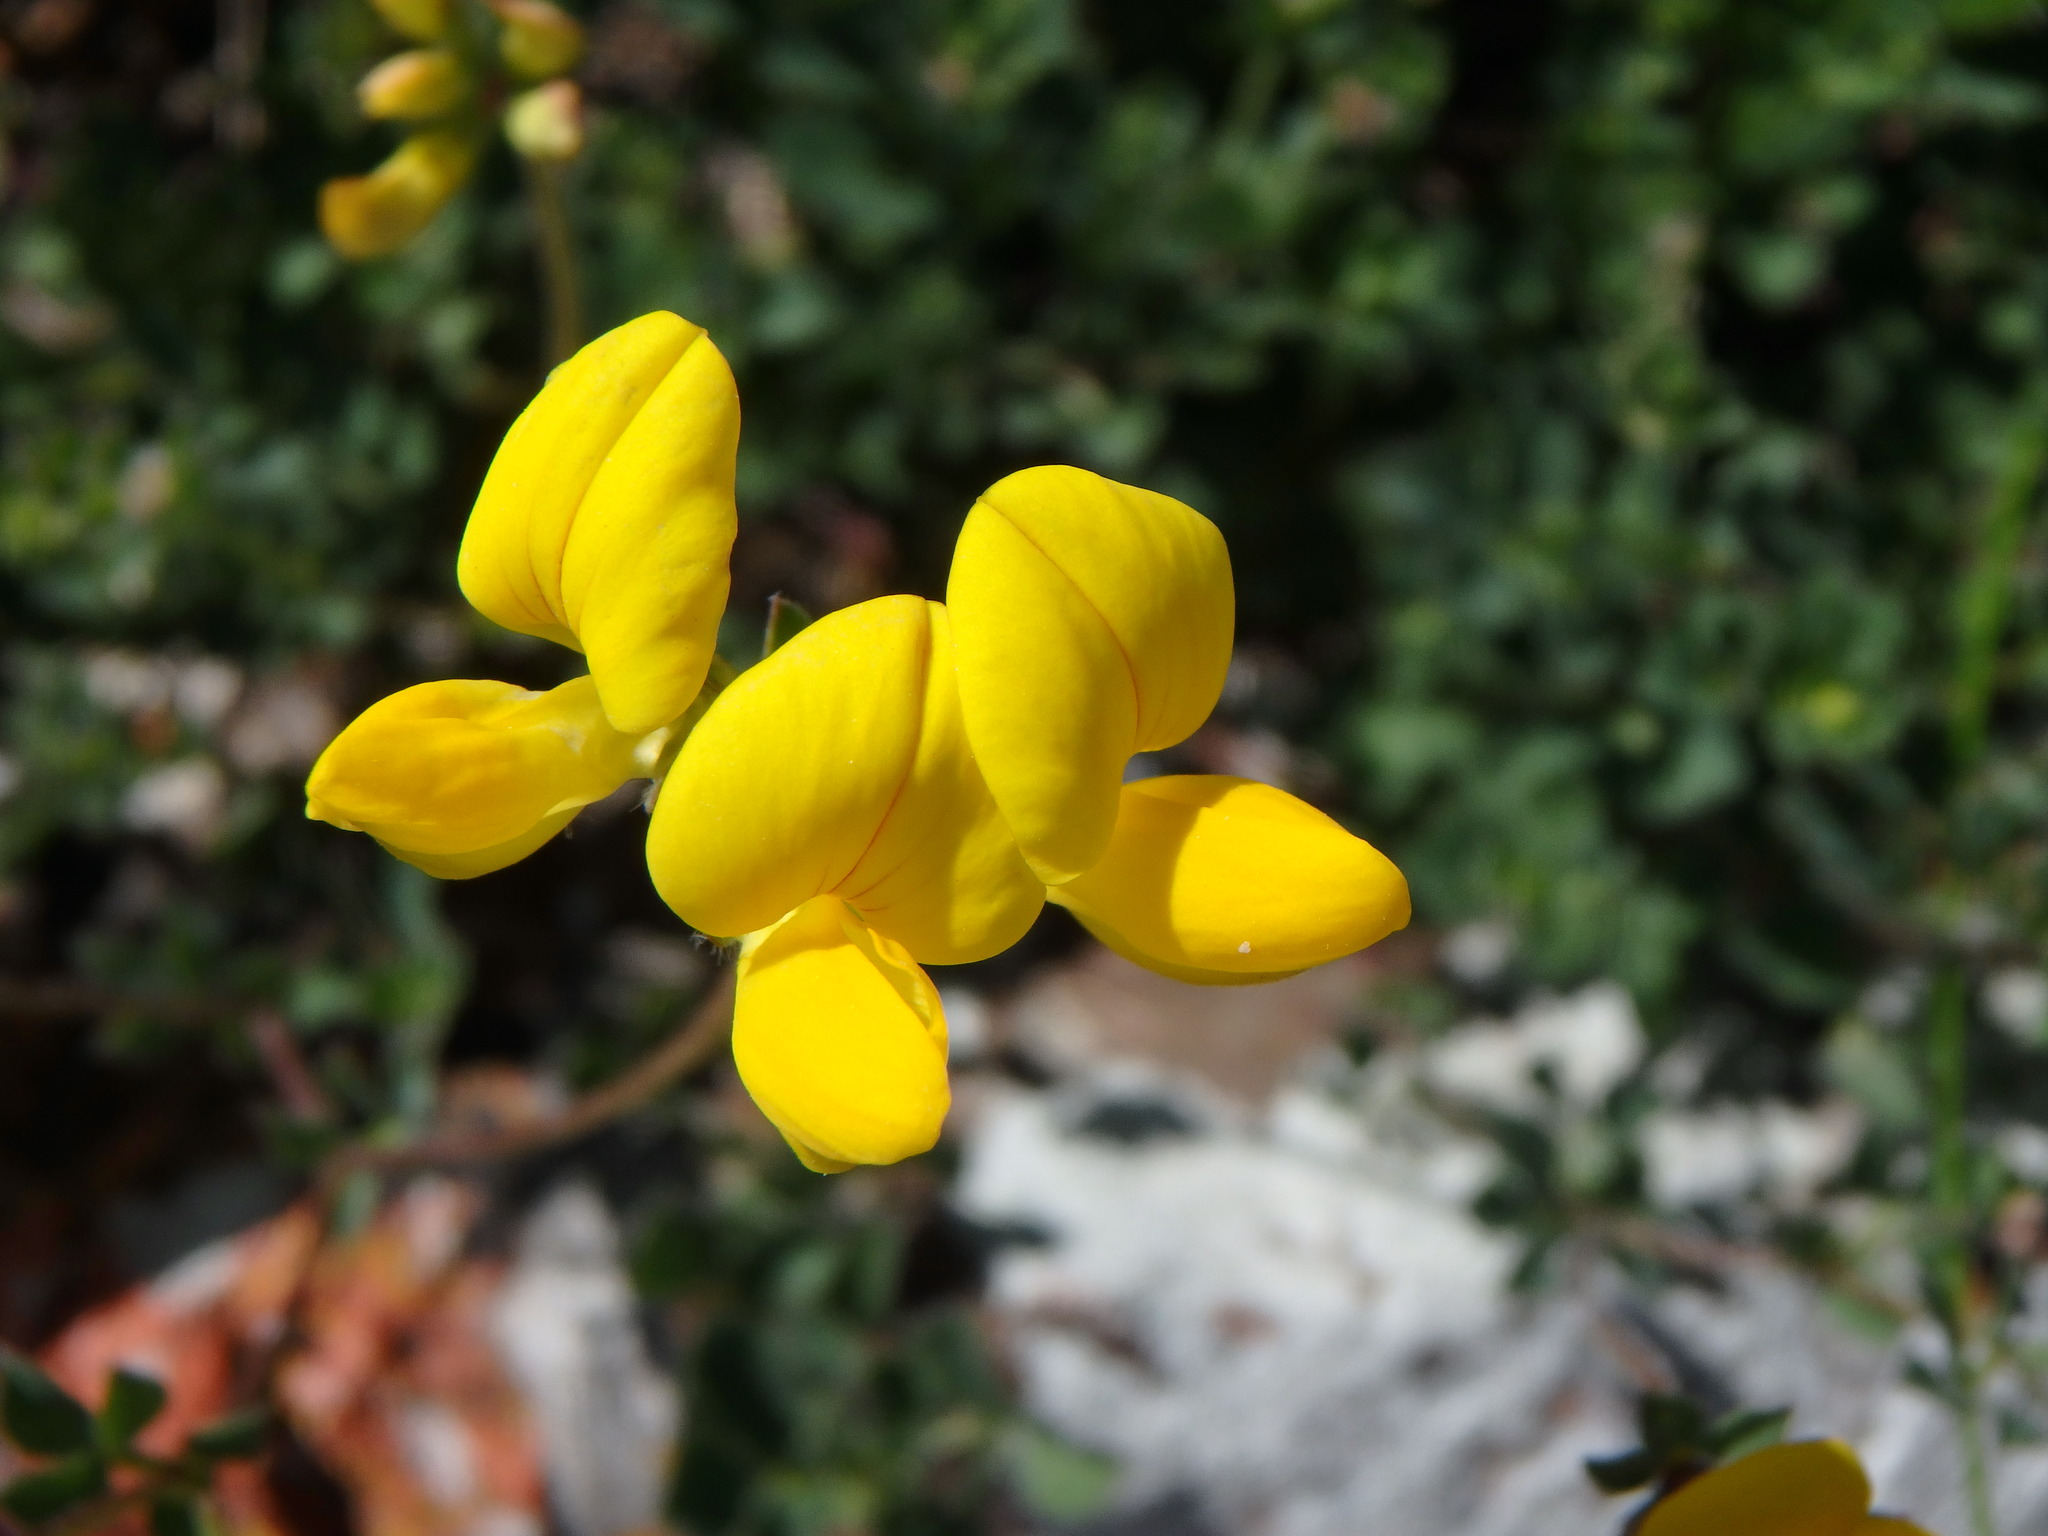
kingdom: Plantae
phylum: Tracheophyta
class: Magnoliopsida
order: Fabales
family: Fabaceae
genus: Lotus
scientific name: Lotus corniculatus
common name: Common bird's-foot-trefoil
